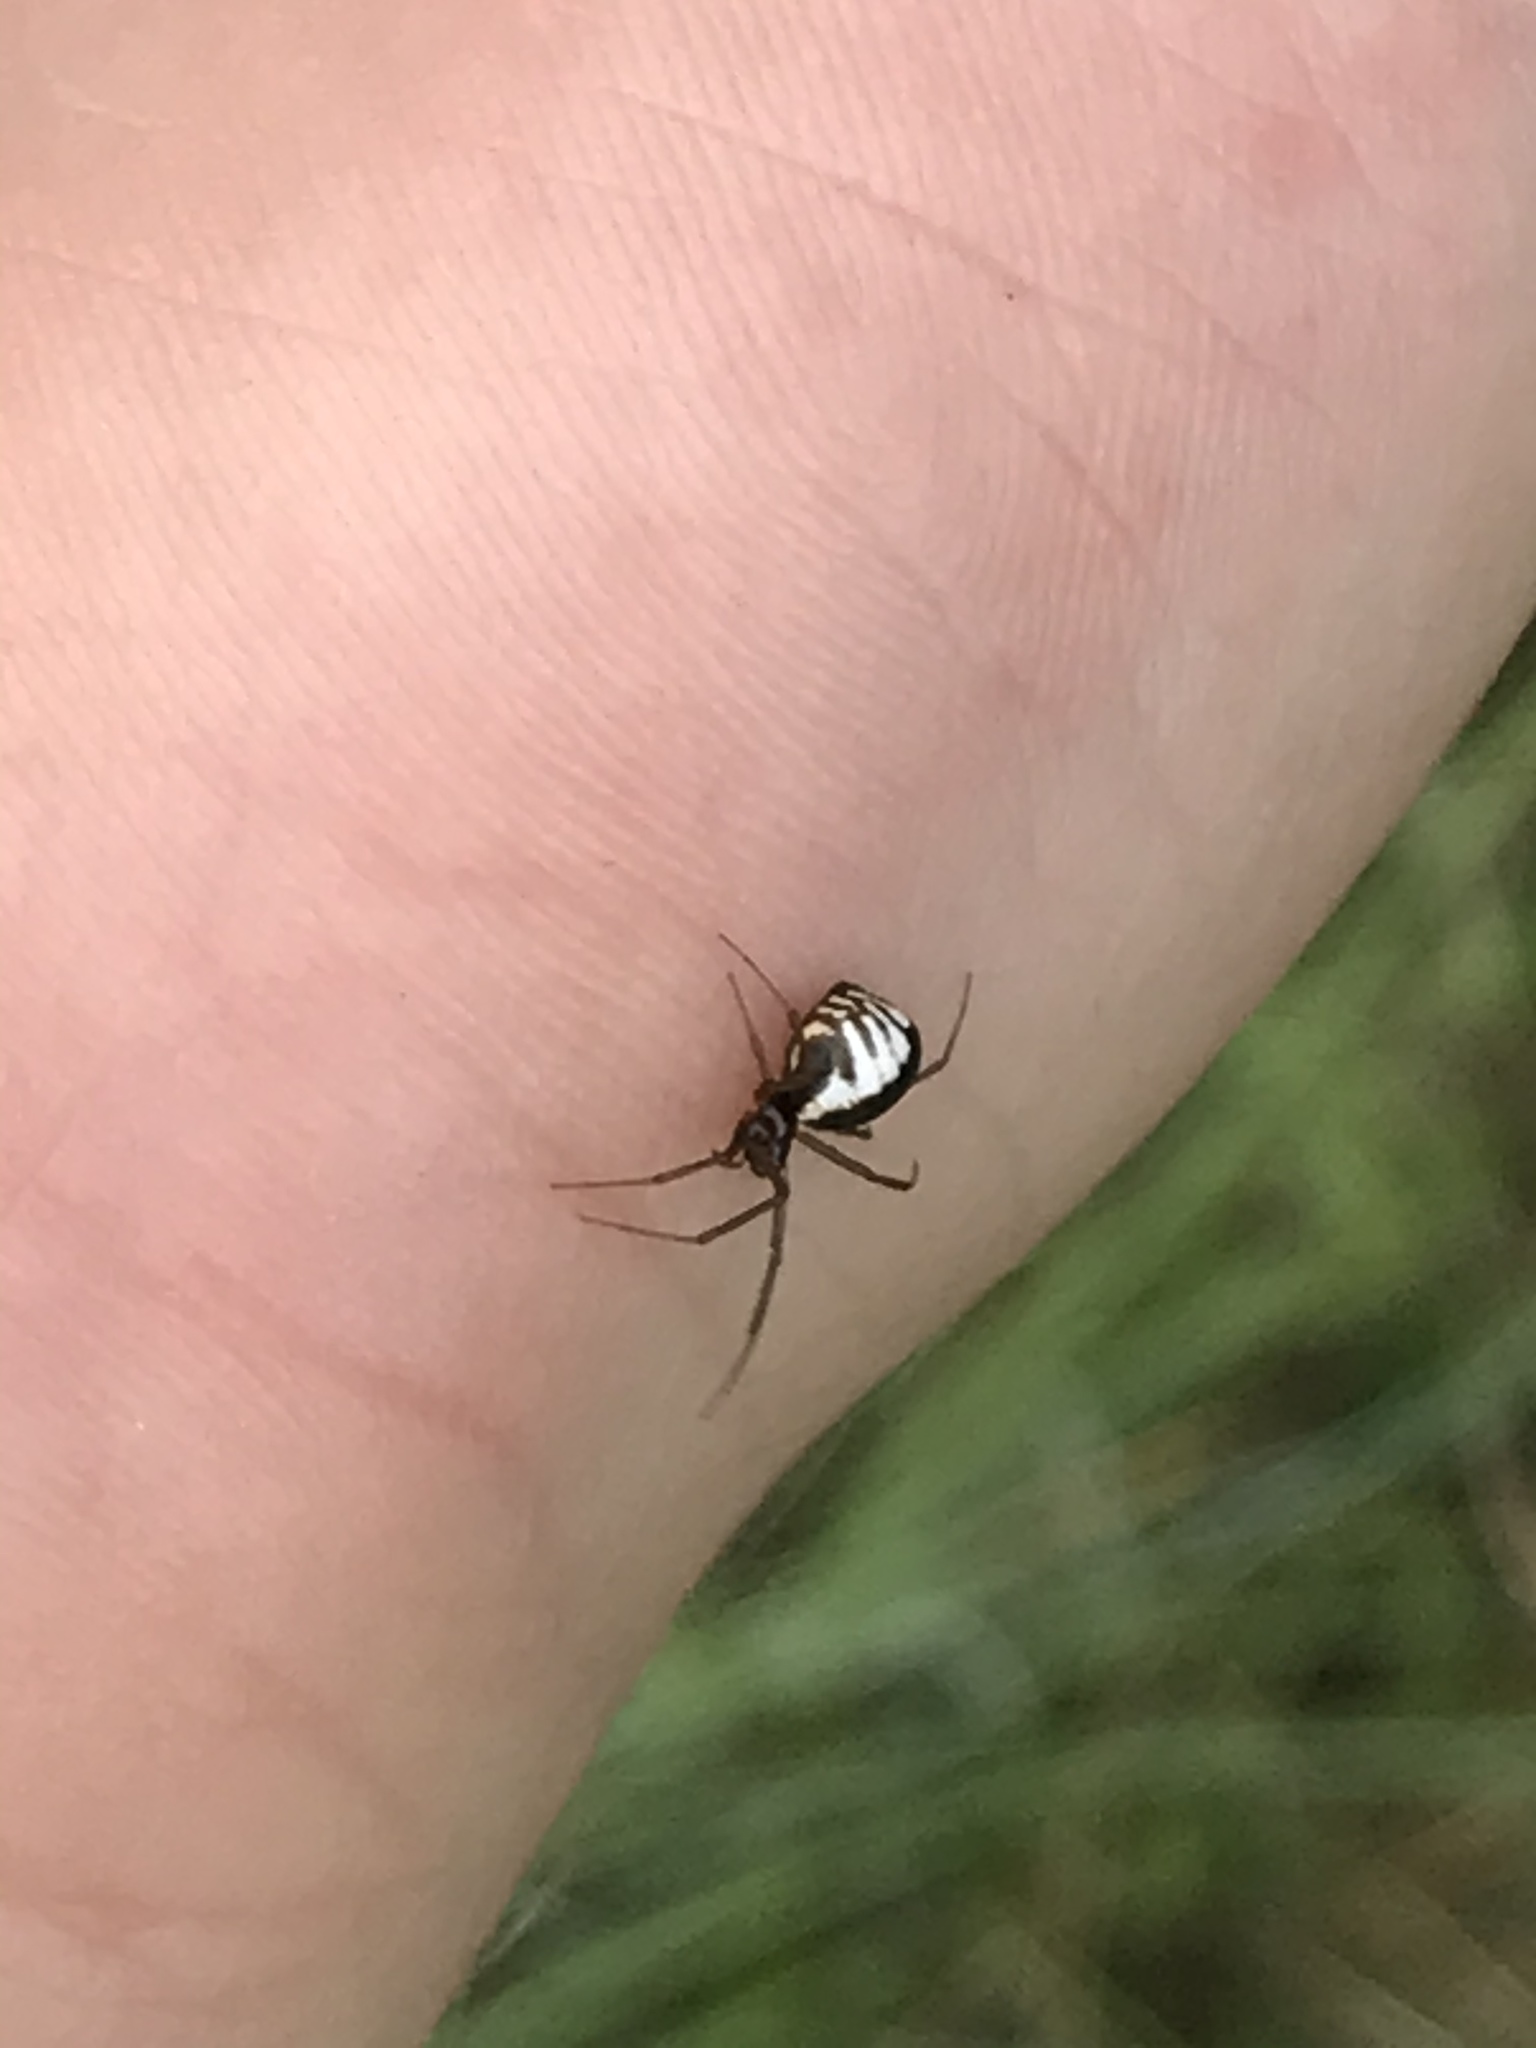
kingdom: Animalia
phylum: Arthropoda
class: Arachnida
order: Araneae
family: Linyphiidae
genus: Frontinella
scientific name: Frontinella pyramitela
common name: Bowl-and-doily spider
